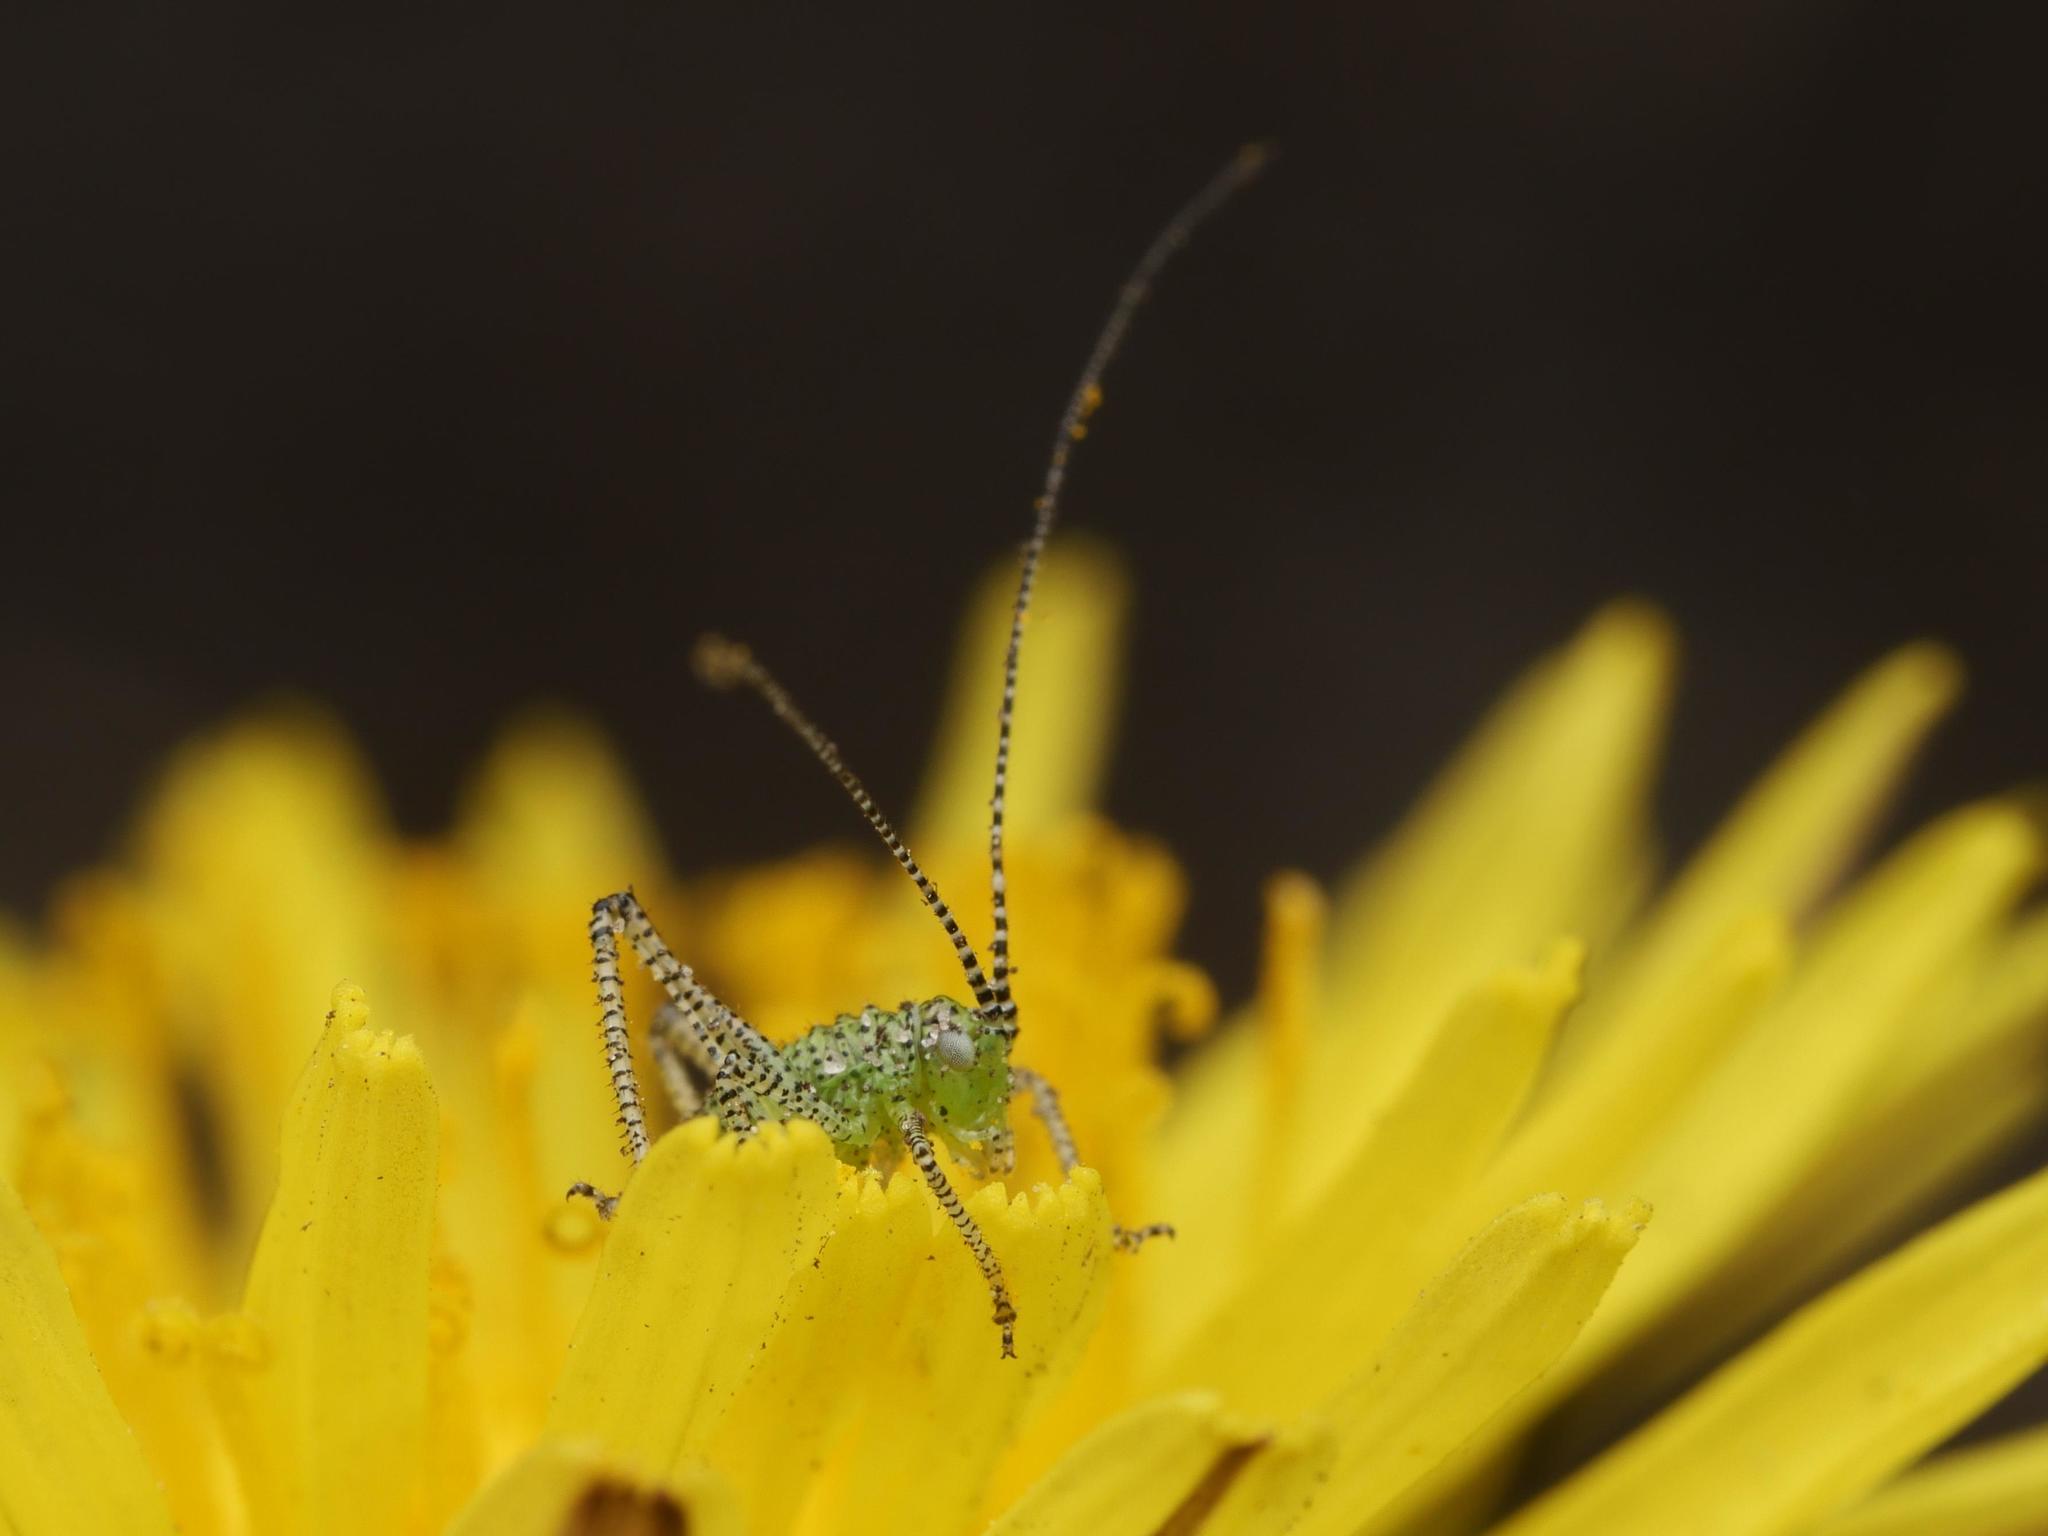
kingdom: Animalia
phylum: Arthropoda
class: Insecta
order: Orthoptera
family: Tettigoniidae
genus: Leptophyes
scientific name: Leptophyes punctatissima
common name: Speckled bush-cricket
